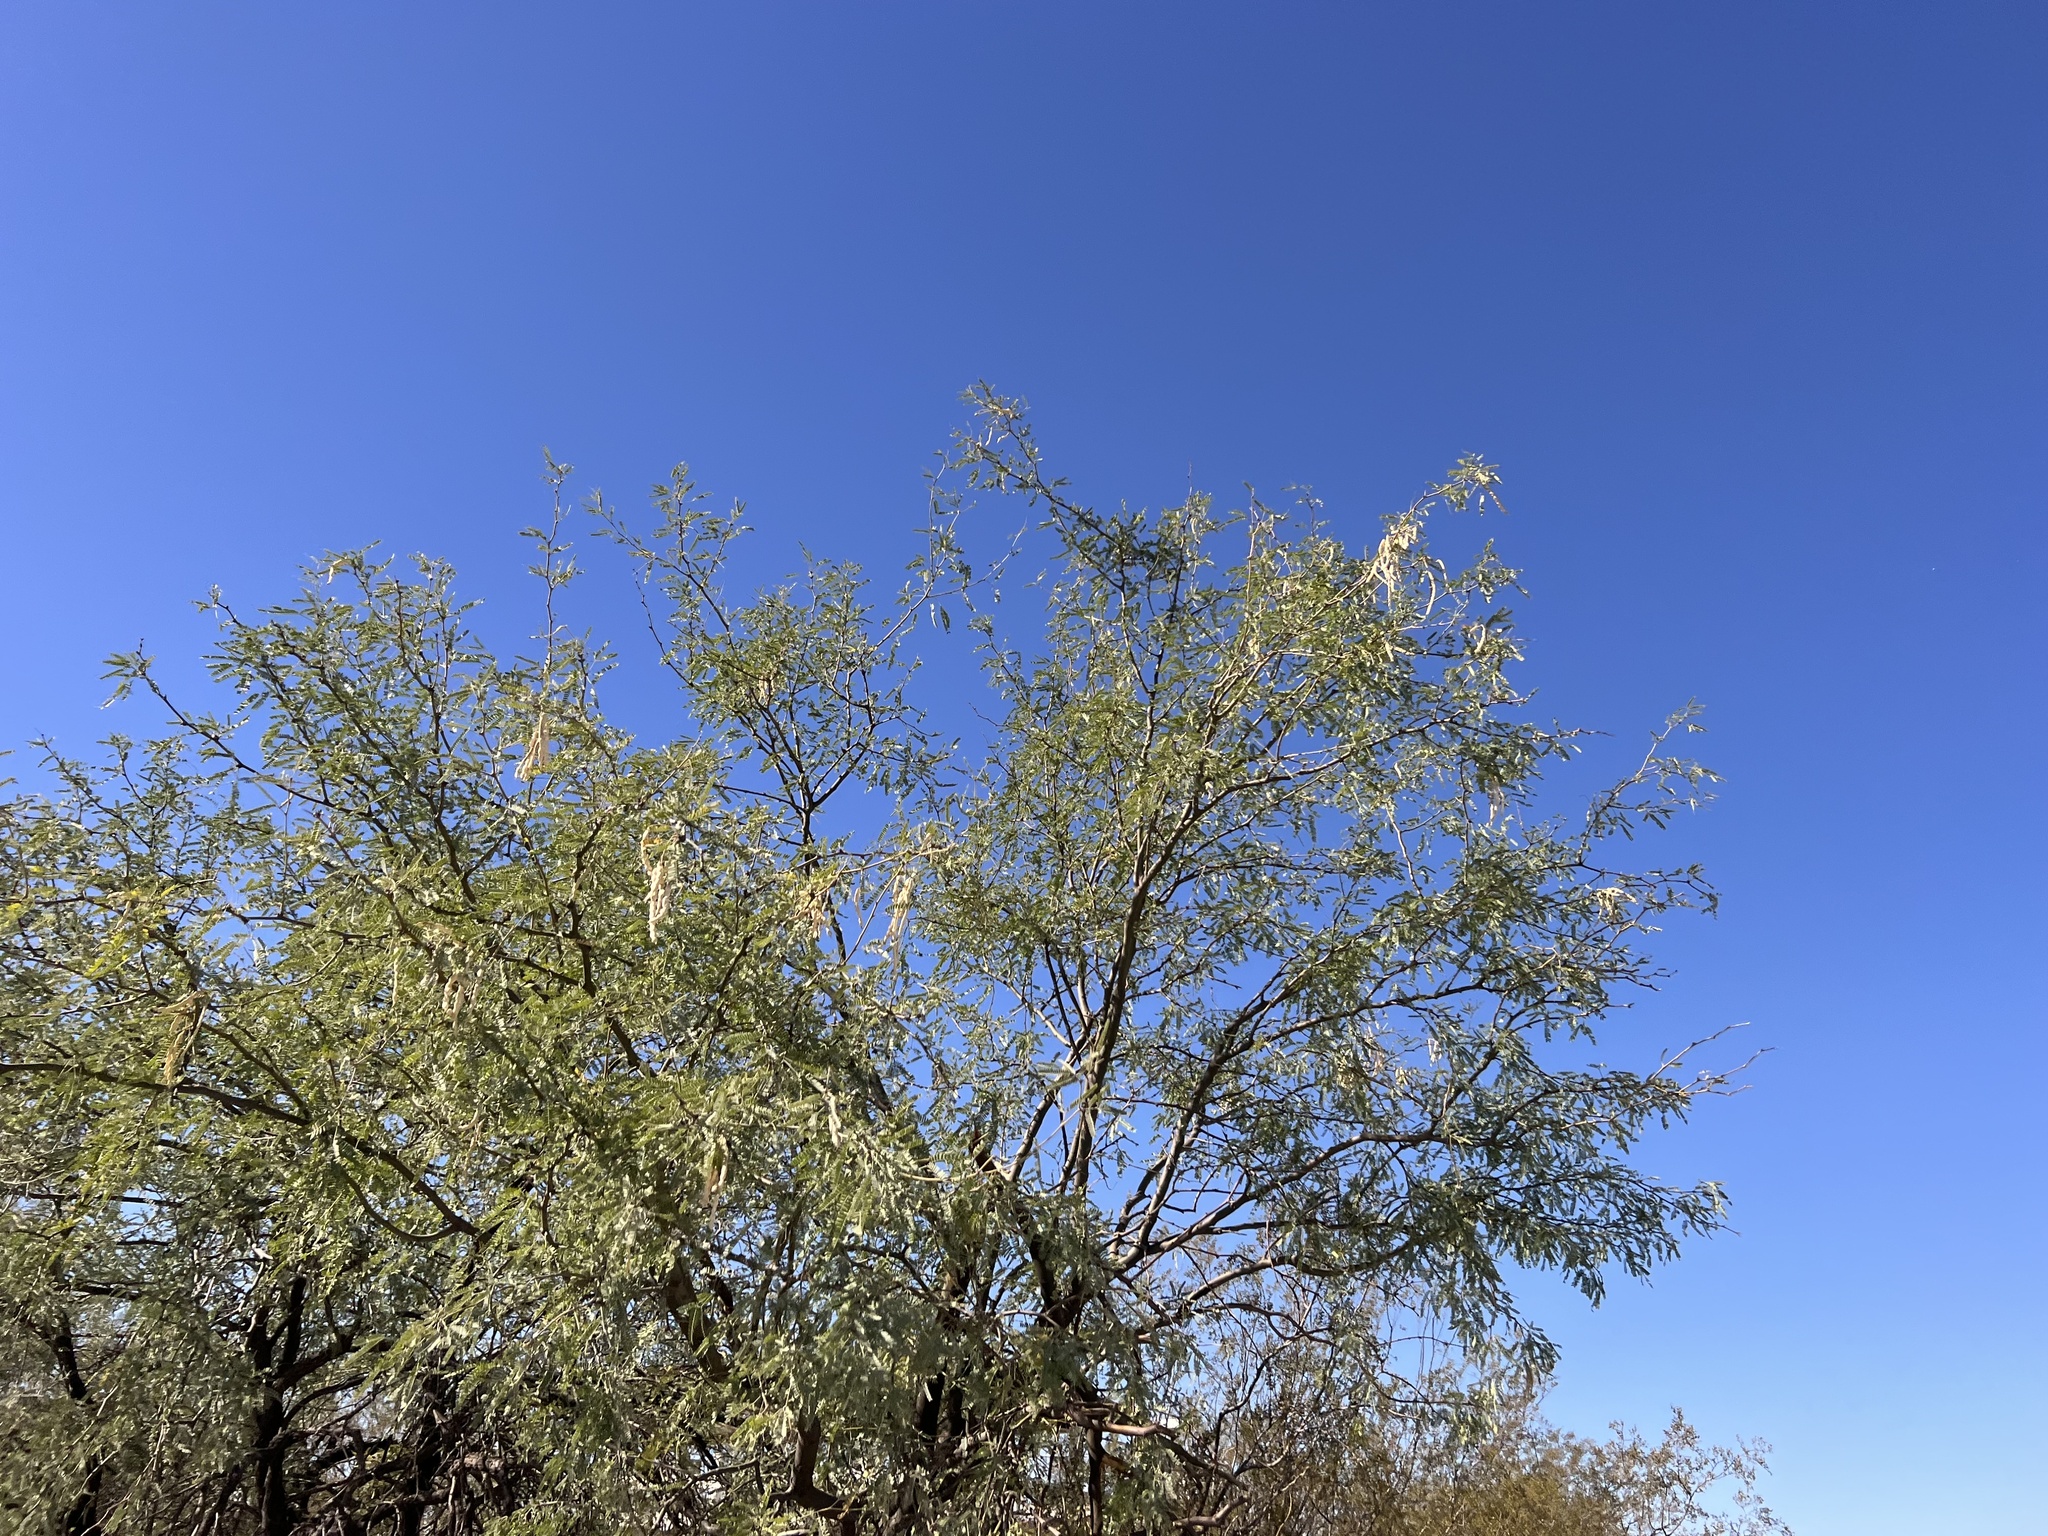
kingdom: Plantae
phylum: Tracheophyta
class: Magnoliopsida
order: Fabales
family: Fabaceae
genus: Prosopis
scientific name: Prosopis velutina
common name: Velvet mesquite
